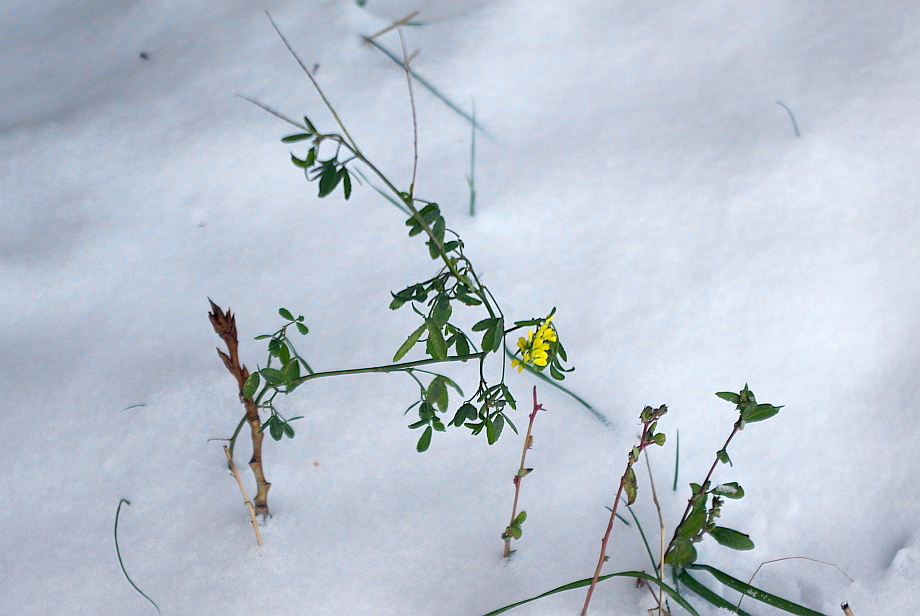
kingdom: Plantae
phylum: Tracheophyta
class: Magnoliopsida
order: Fabales
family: Fabaceae
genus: Melilotus
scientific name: Melilotus officinalis
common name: Sweetclover
